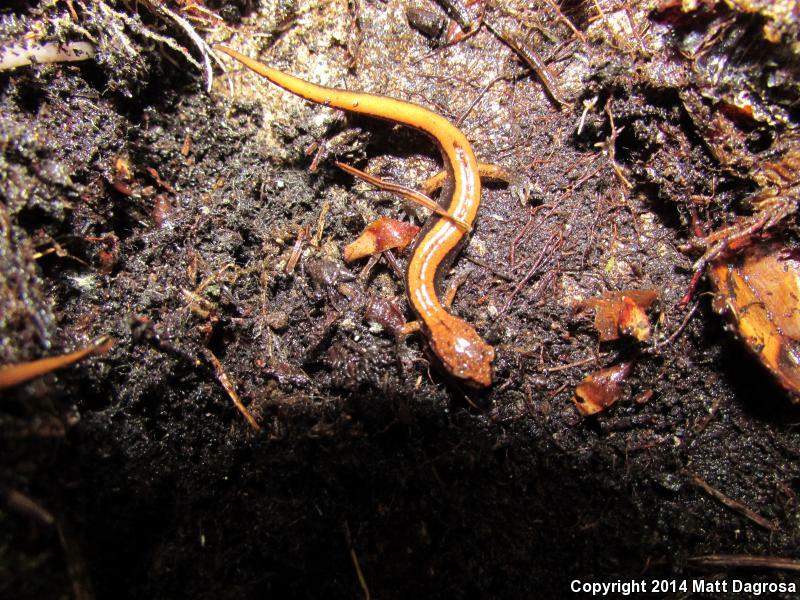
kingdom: Animalia
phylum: Chordata
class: Amphibia
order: Caudata
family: Plethodontidae
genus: Plethodon
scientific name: Plethodon vehiculum
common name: Western red-backed salamander
